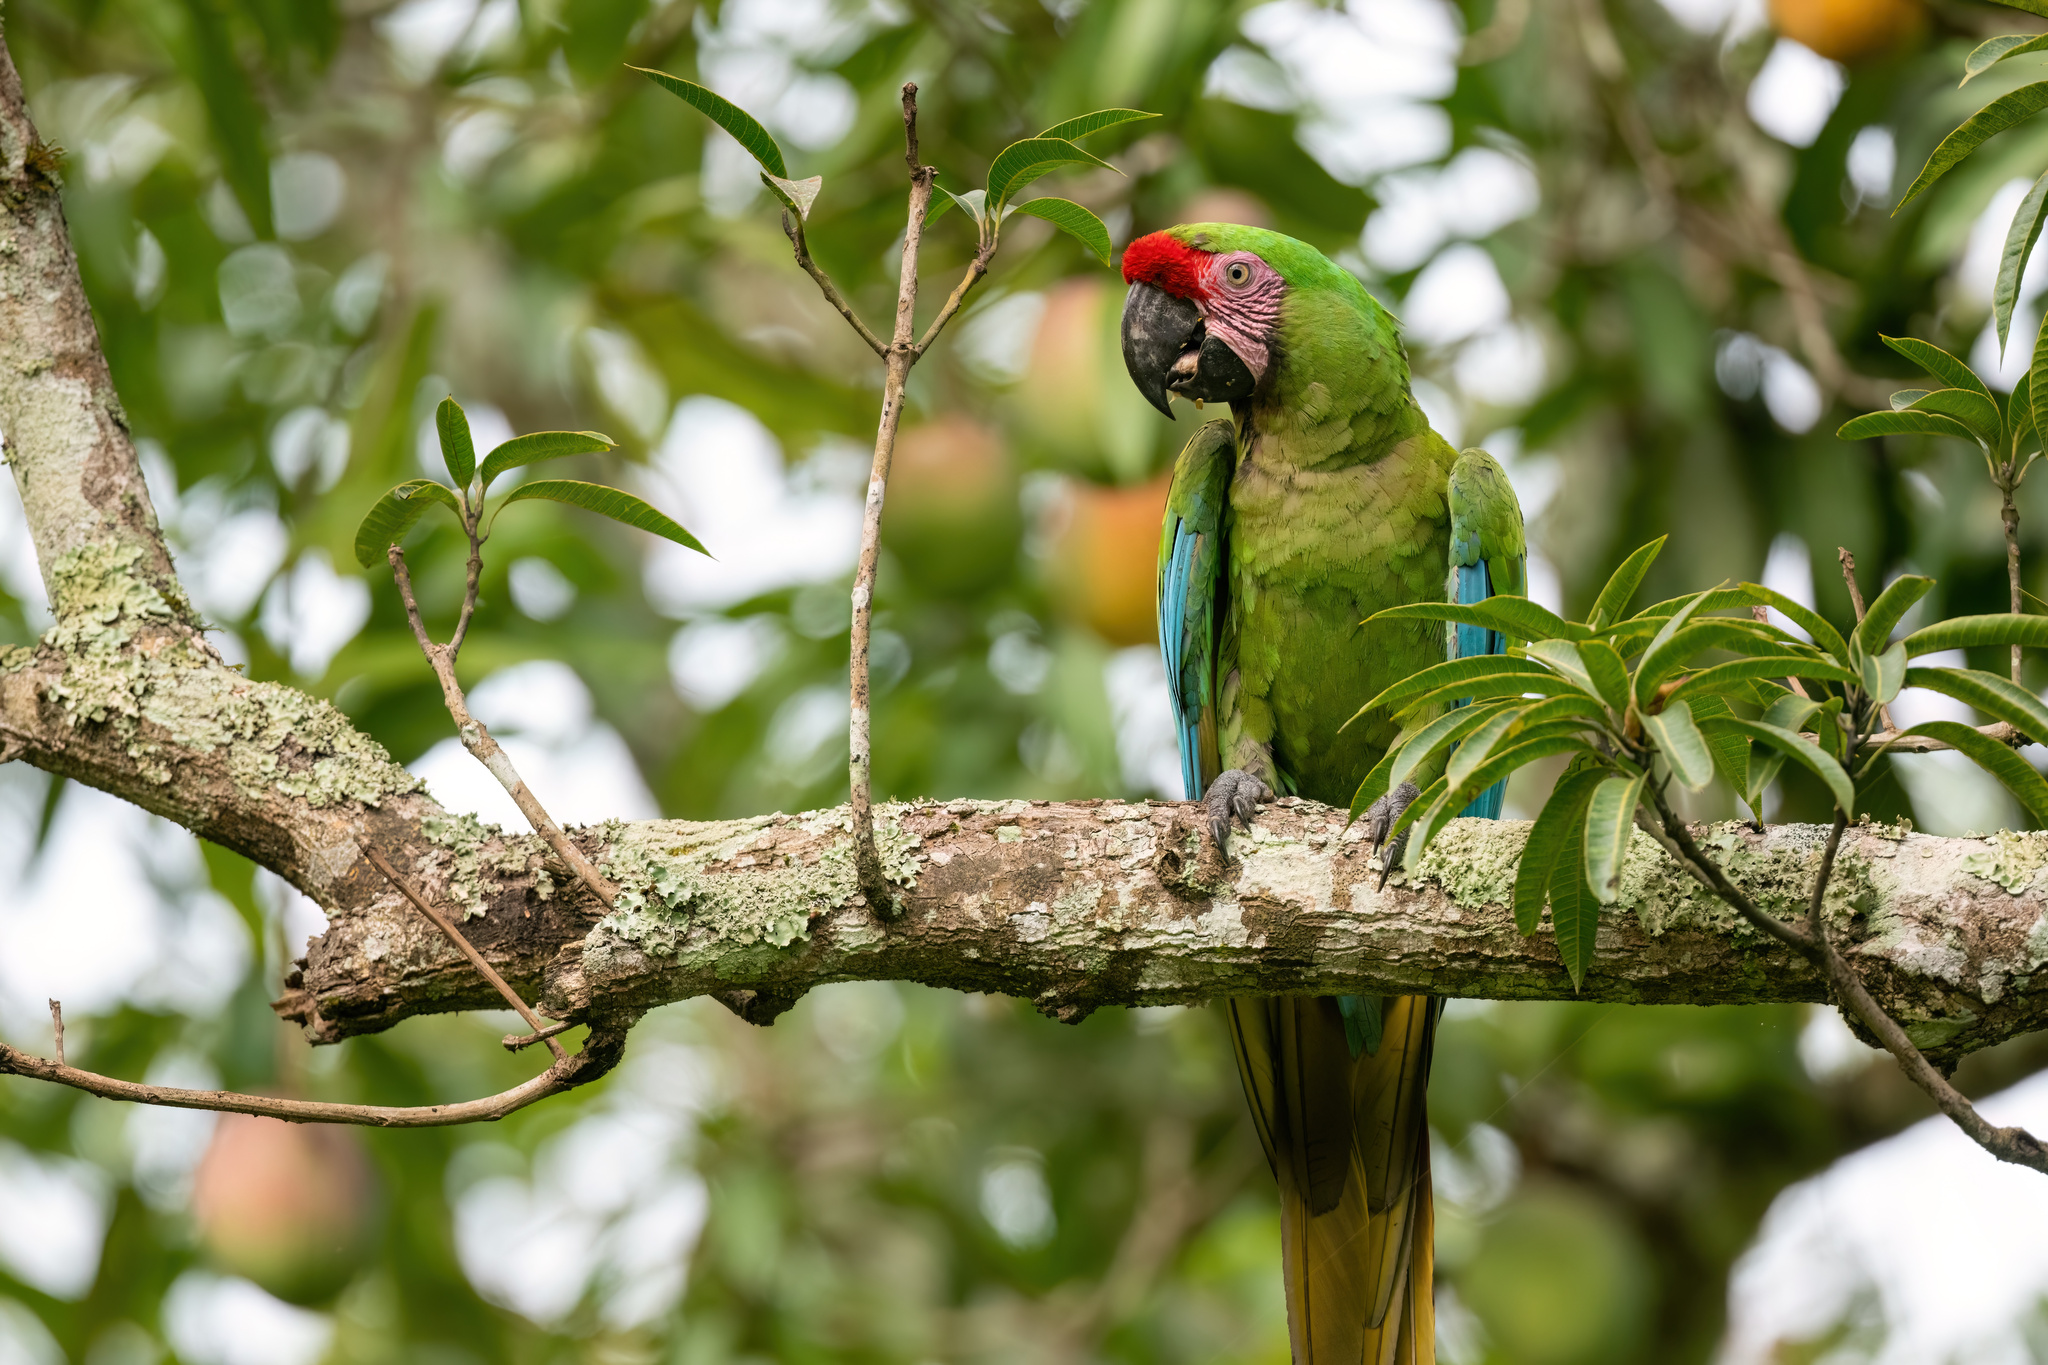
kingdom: Animalia
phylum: Chordata
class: Aves
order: Psittaciformes
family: Psittacidae
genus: Ara
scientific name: Ara militaris
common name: Military macaw
